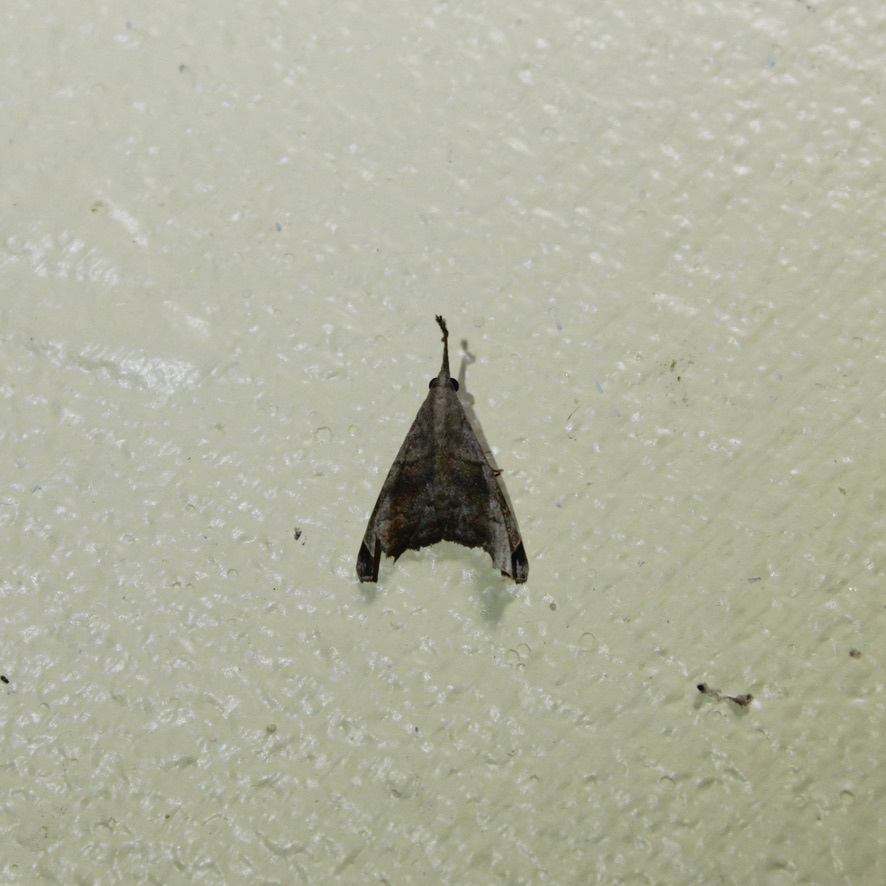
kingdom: Animalia
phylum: Arthropoda
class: Insecta
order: Lepidoptera
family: Erebidae
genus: Palthis
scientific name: Palthis bizialis
